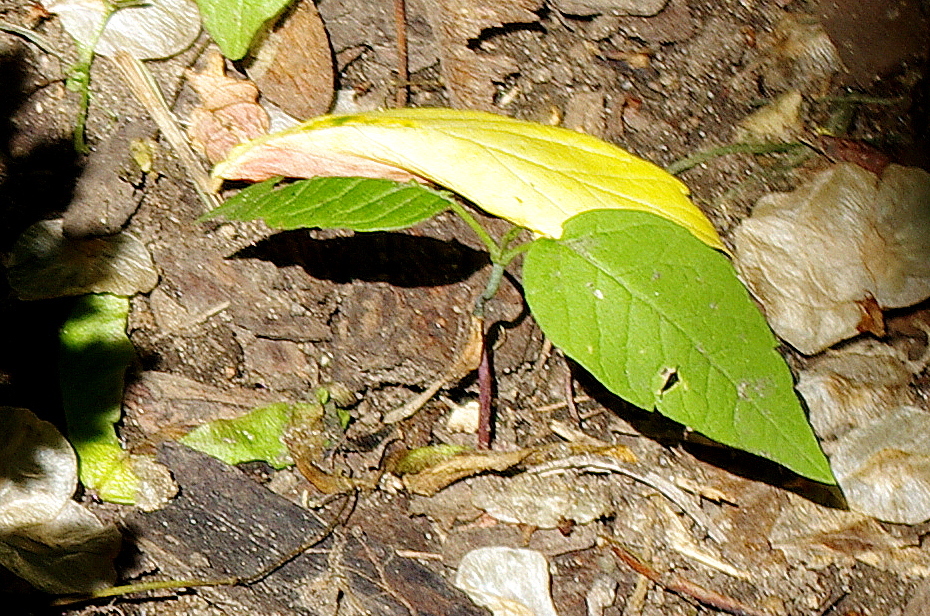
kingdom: Plantae
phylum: Tracheophyta
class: Magnoliopsida
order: Sapindales
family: Sapindaceae
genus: Acer
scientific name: Acer negundo
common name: Ashleaf maple
